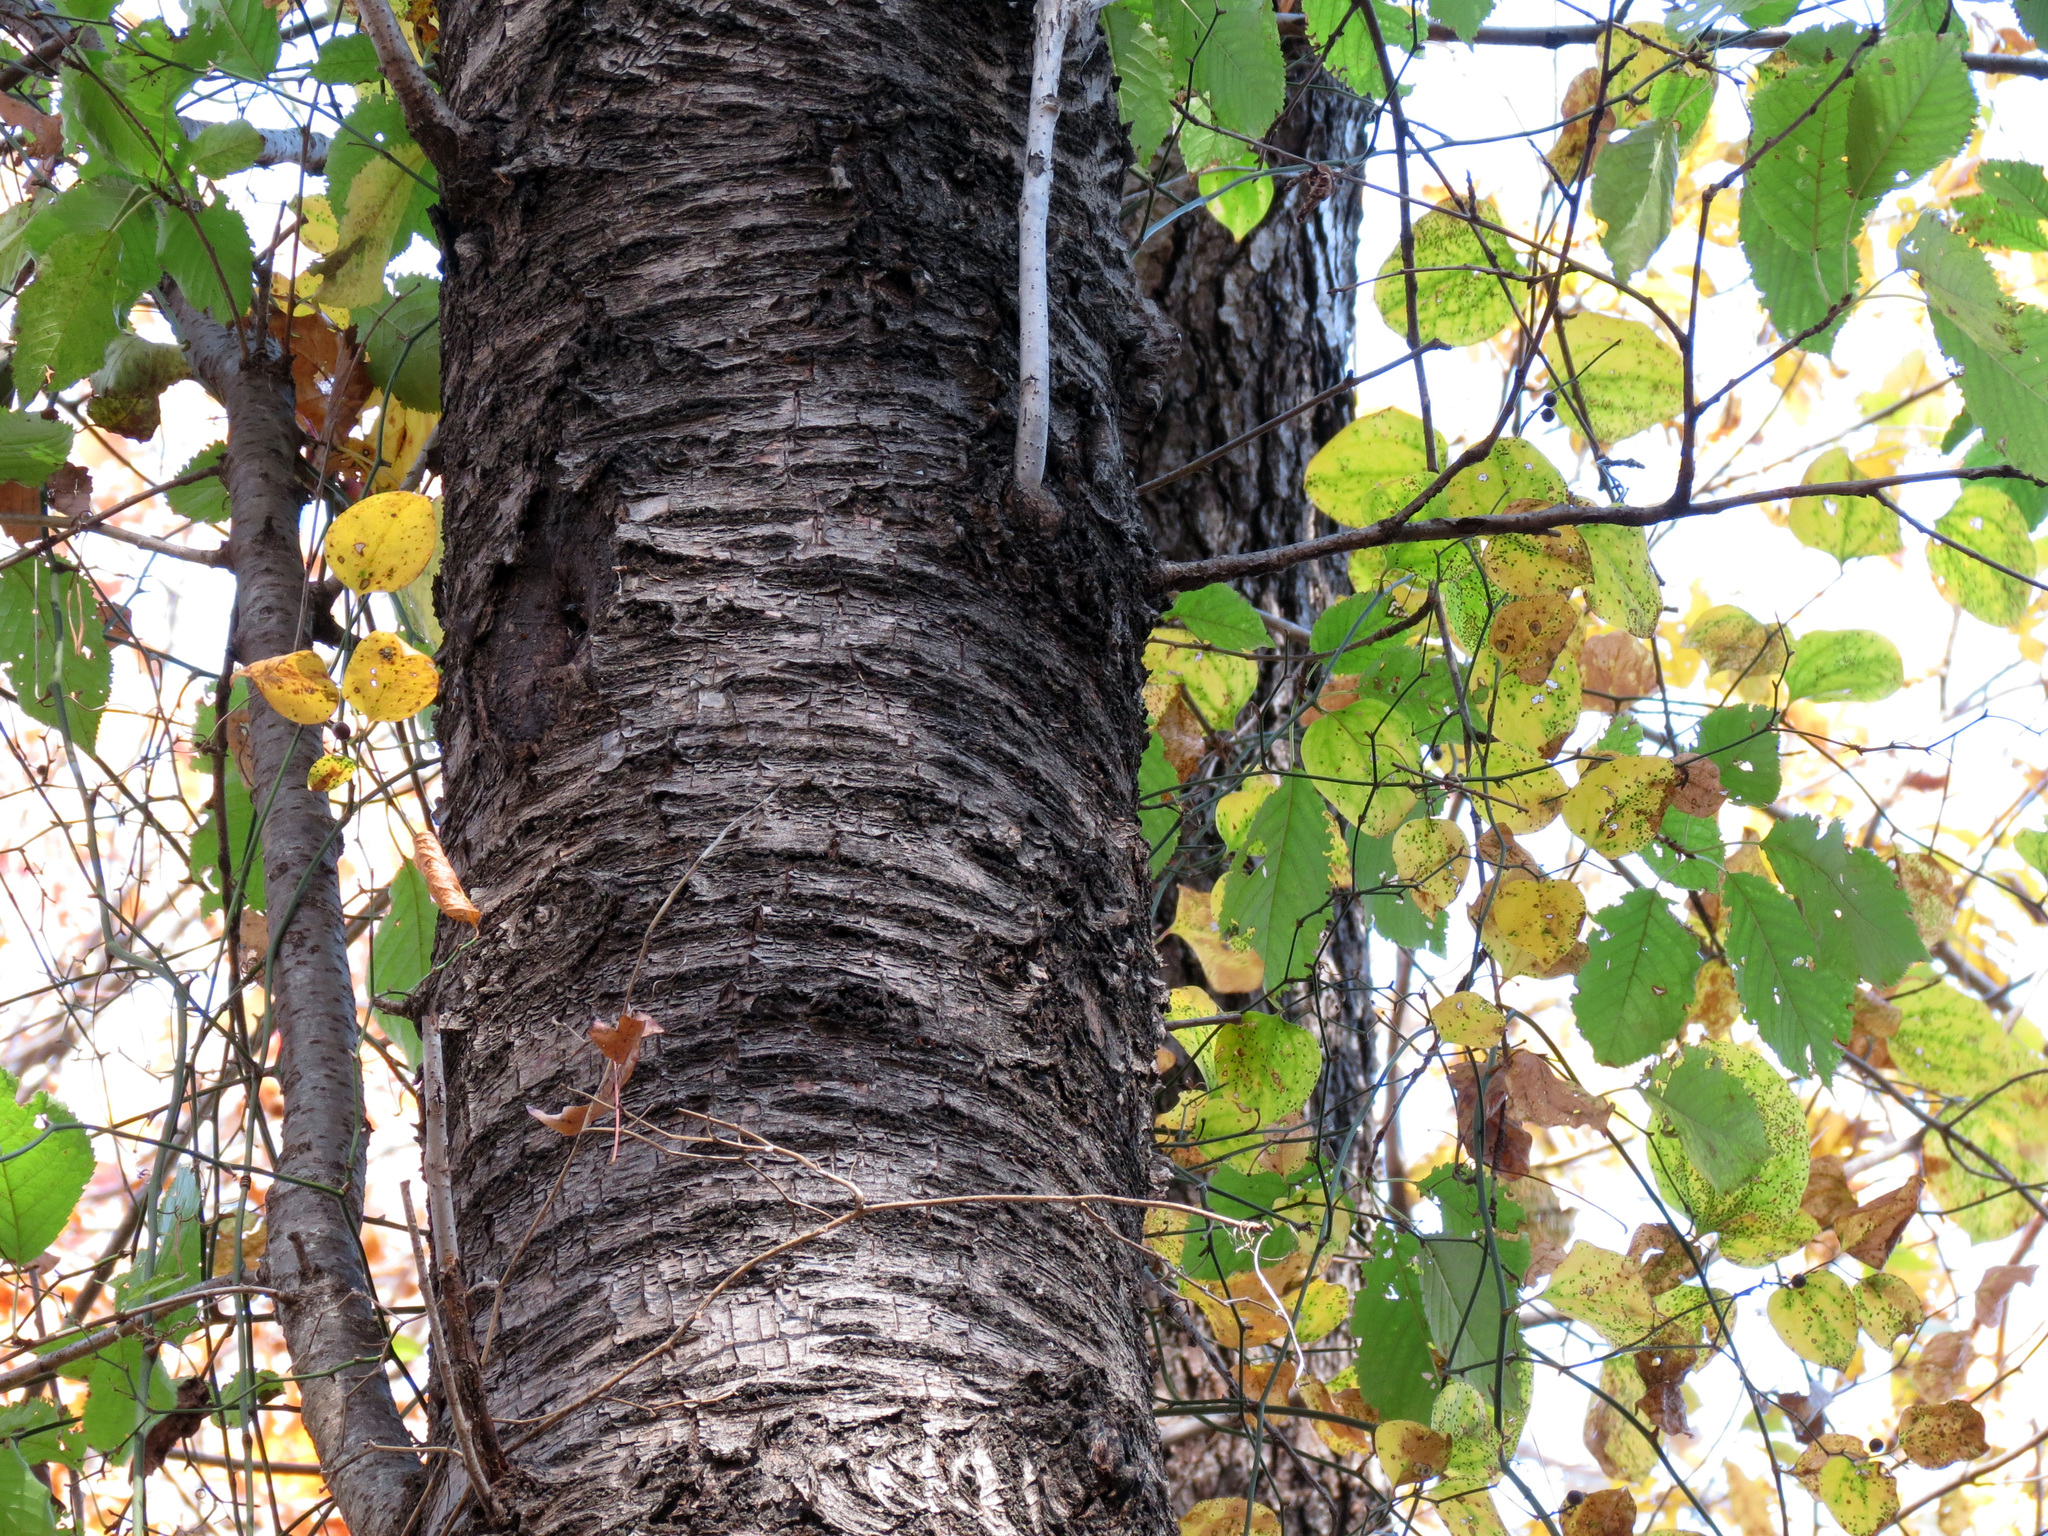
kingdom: Plantae
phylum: Tracheophyta
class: Magnoliopsida
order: Fagales
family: Betulaceae
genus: Betula
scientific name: Betula lenta
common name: Black birch
